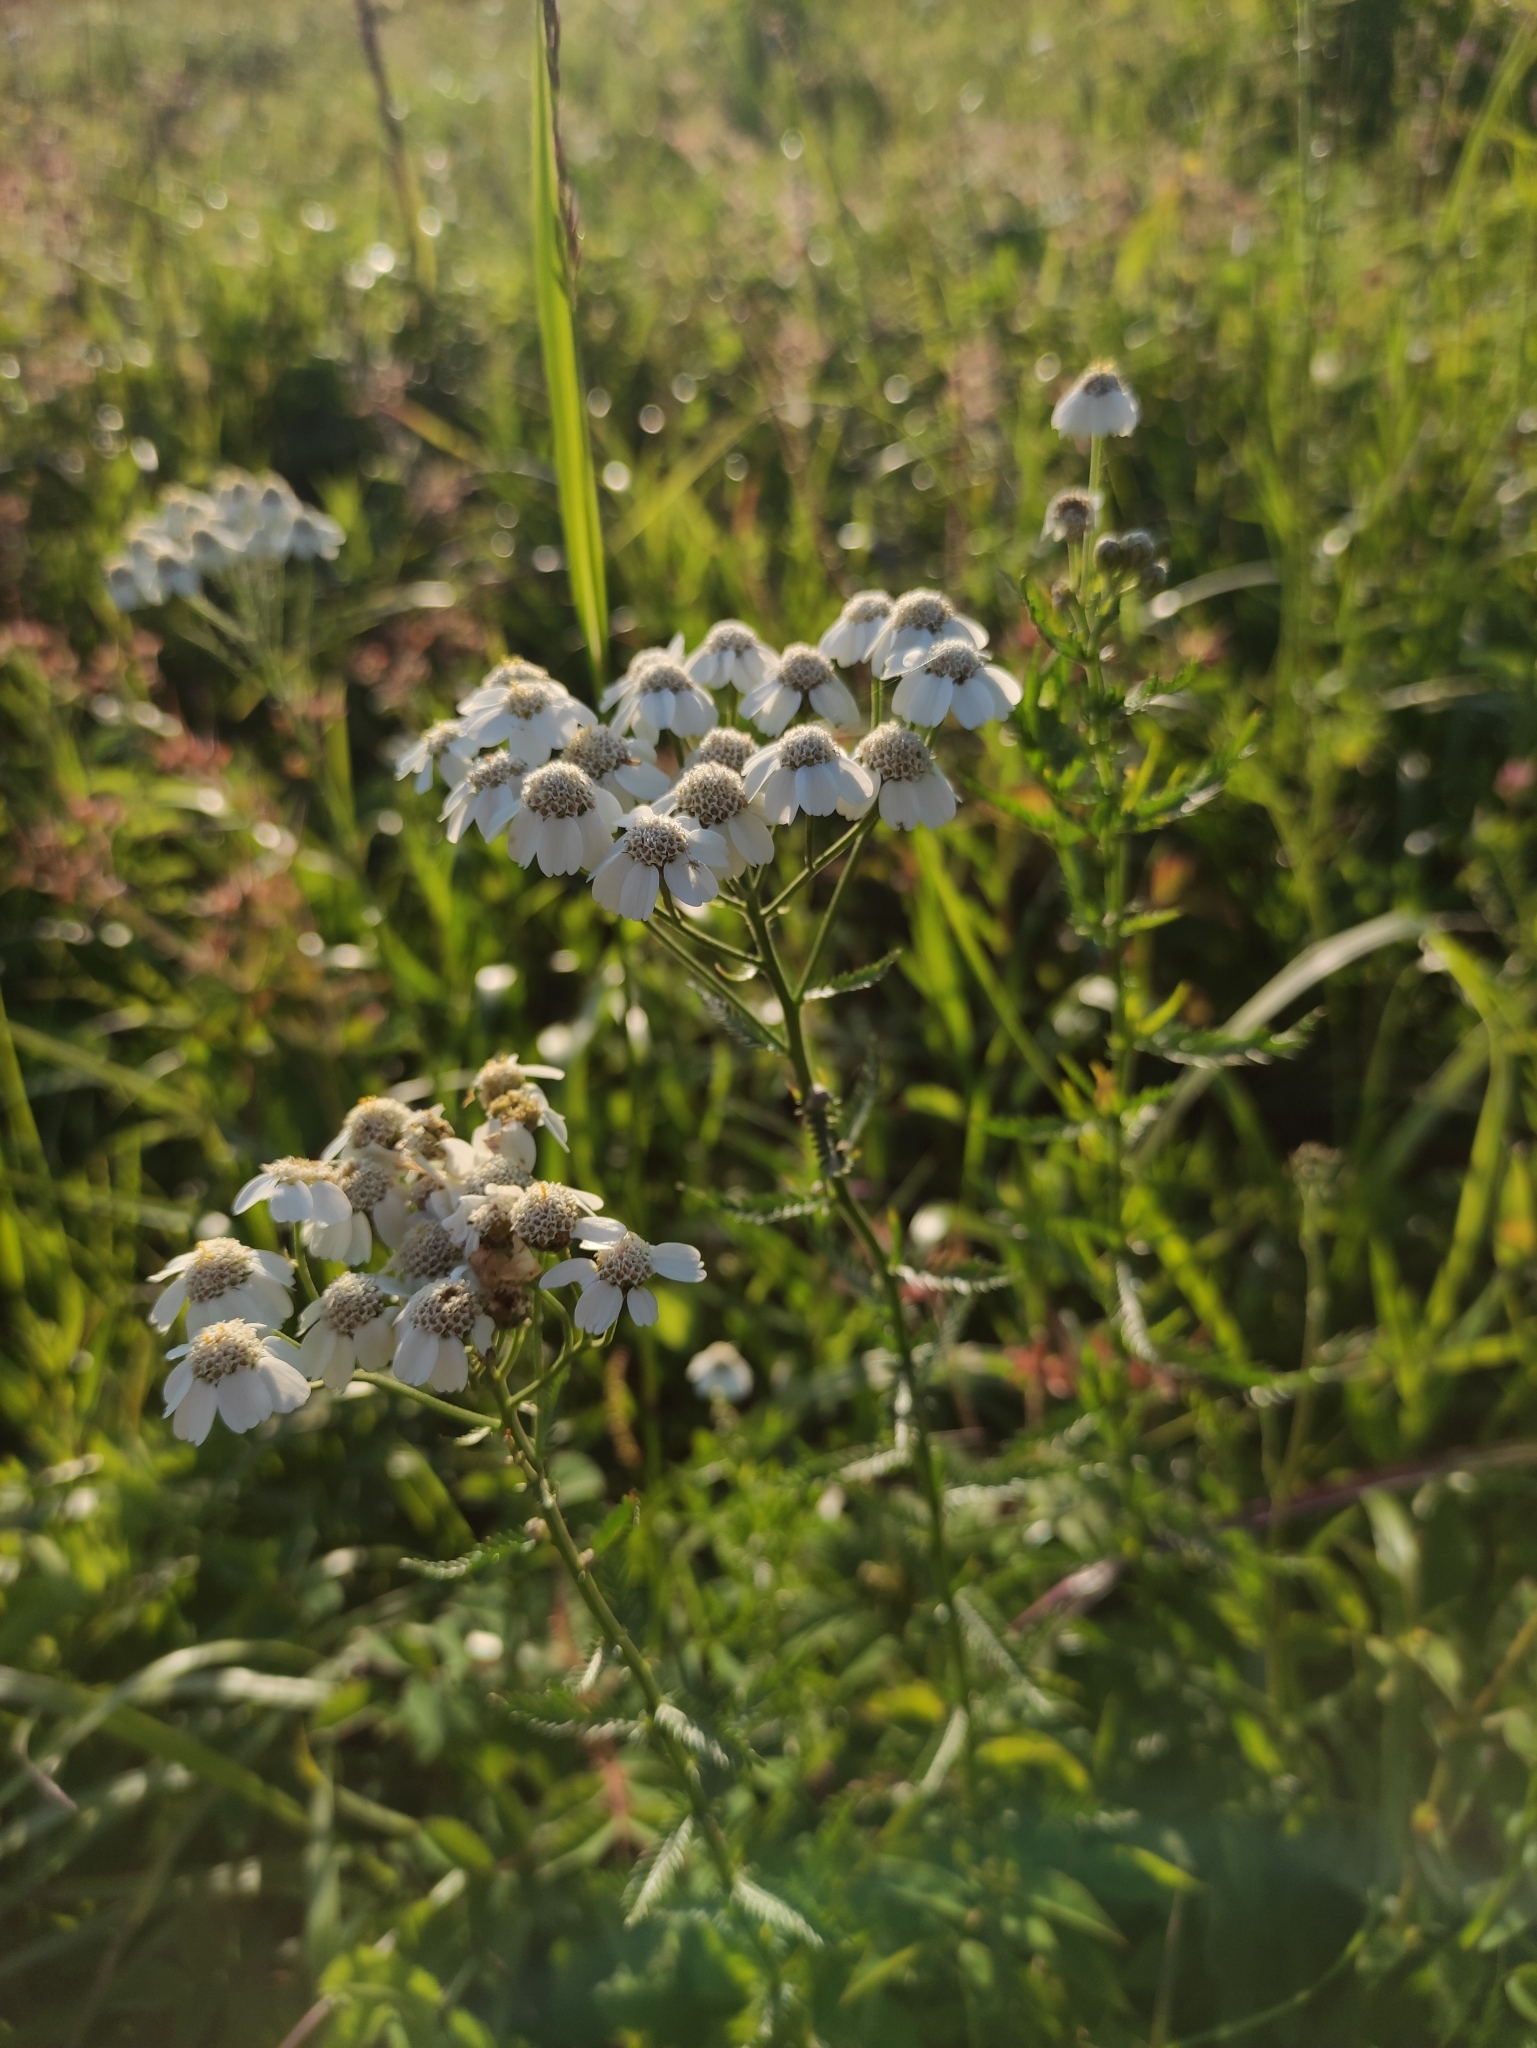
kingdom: Plantae
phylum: Tracheophyta
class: Magnoliopsida
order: Asterales
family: Asteraceae
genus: Achillea
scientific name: Achillea alpina
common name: Siberian yarrow
